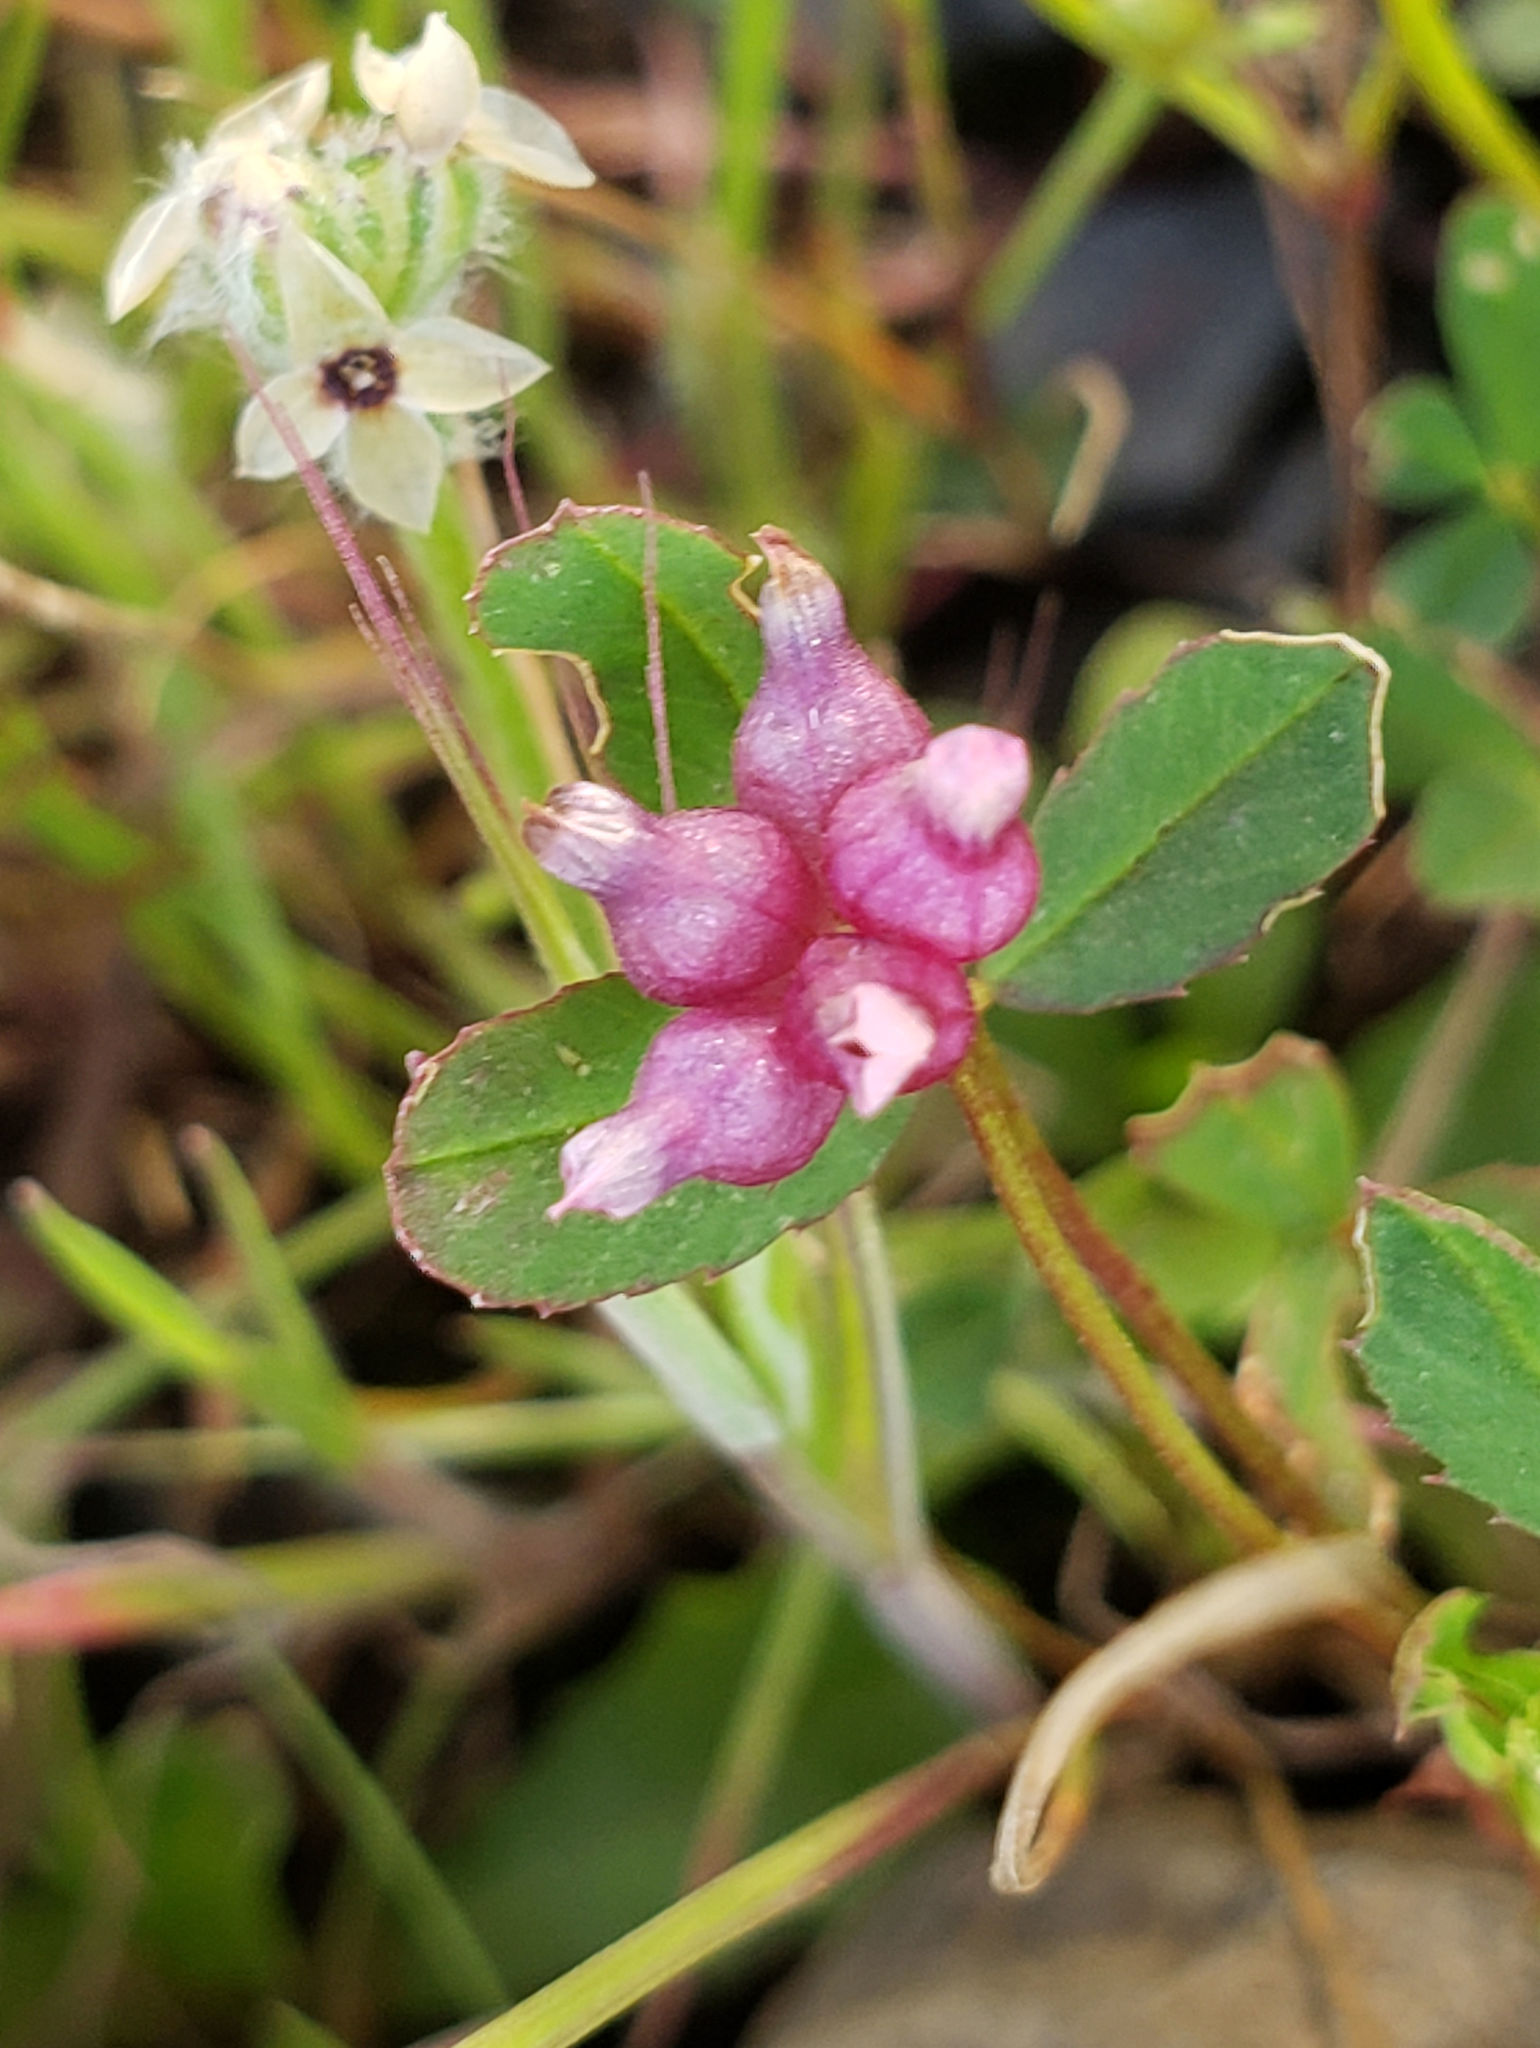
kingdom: Plantae
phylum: Tracheophyta
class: Magnoliopsida
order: Fabales
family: Fabaceae
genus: Trifolium
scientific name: Trifolium depauperatum
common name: Poverty clover
